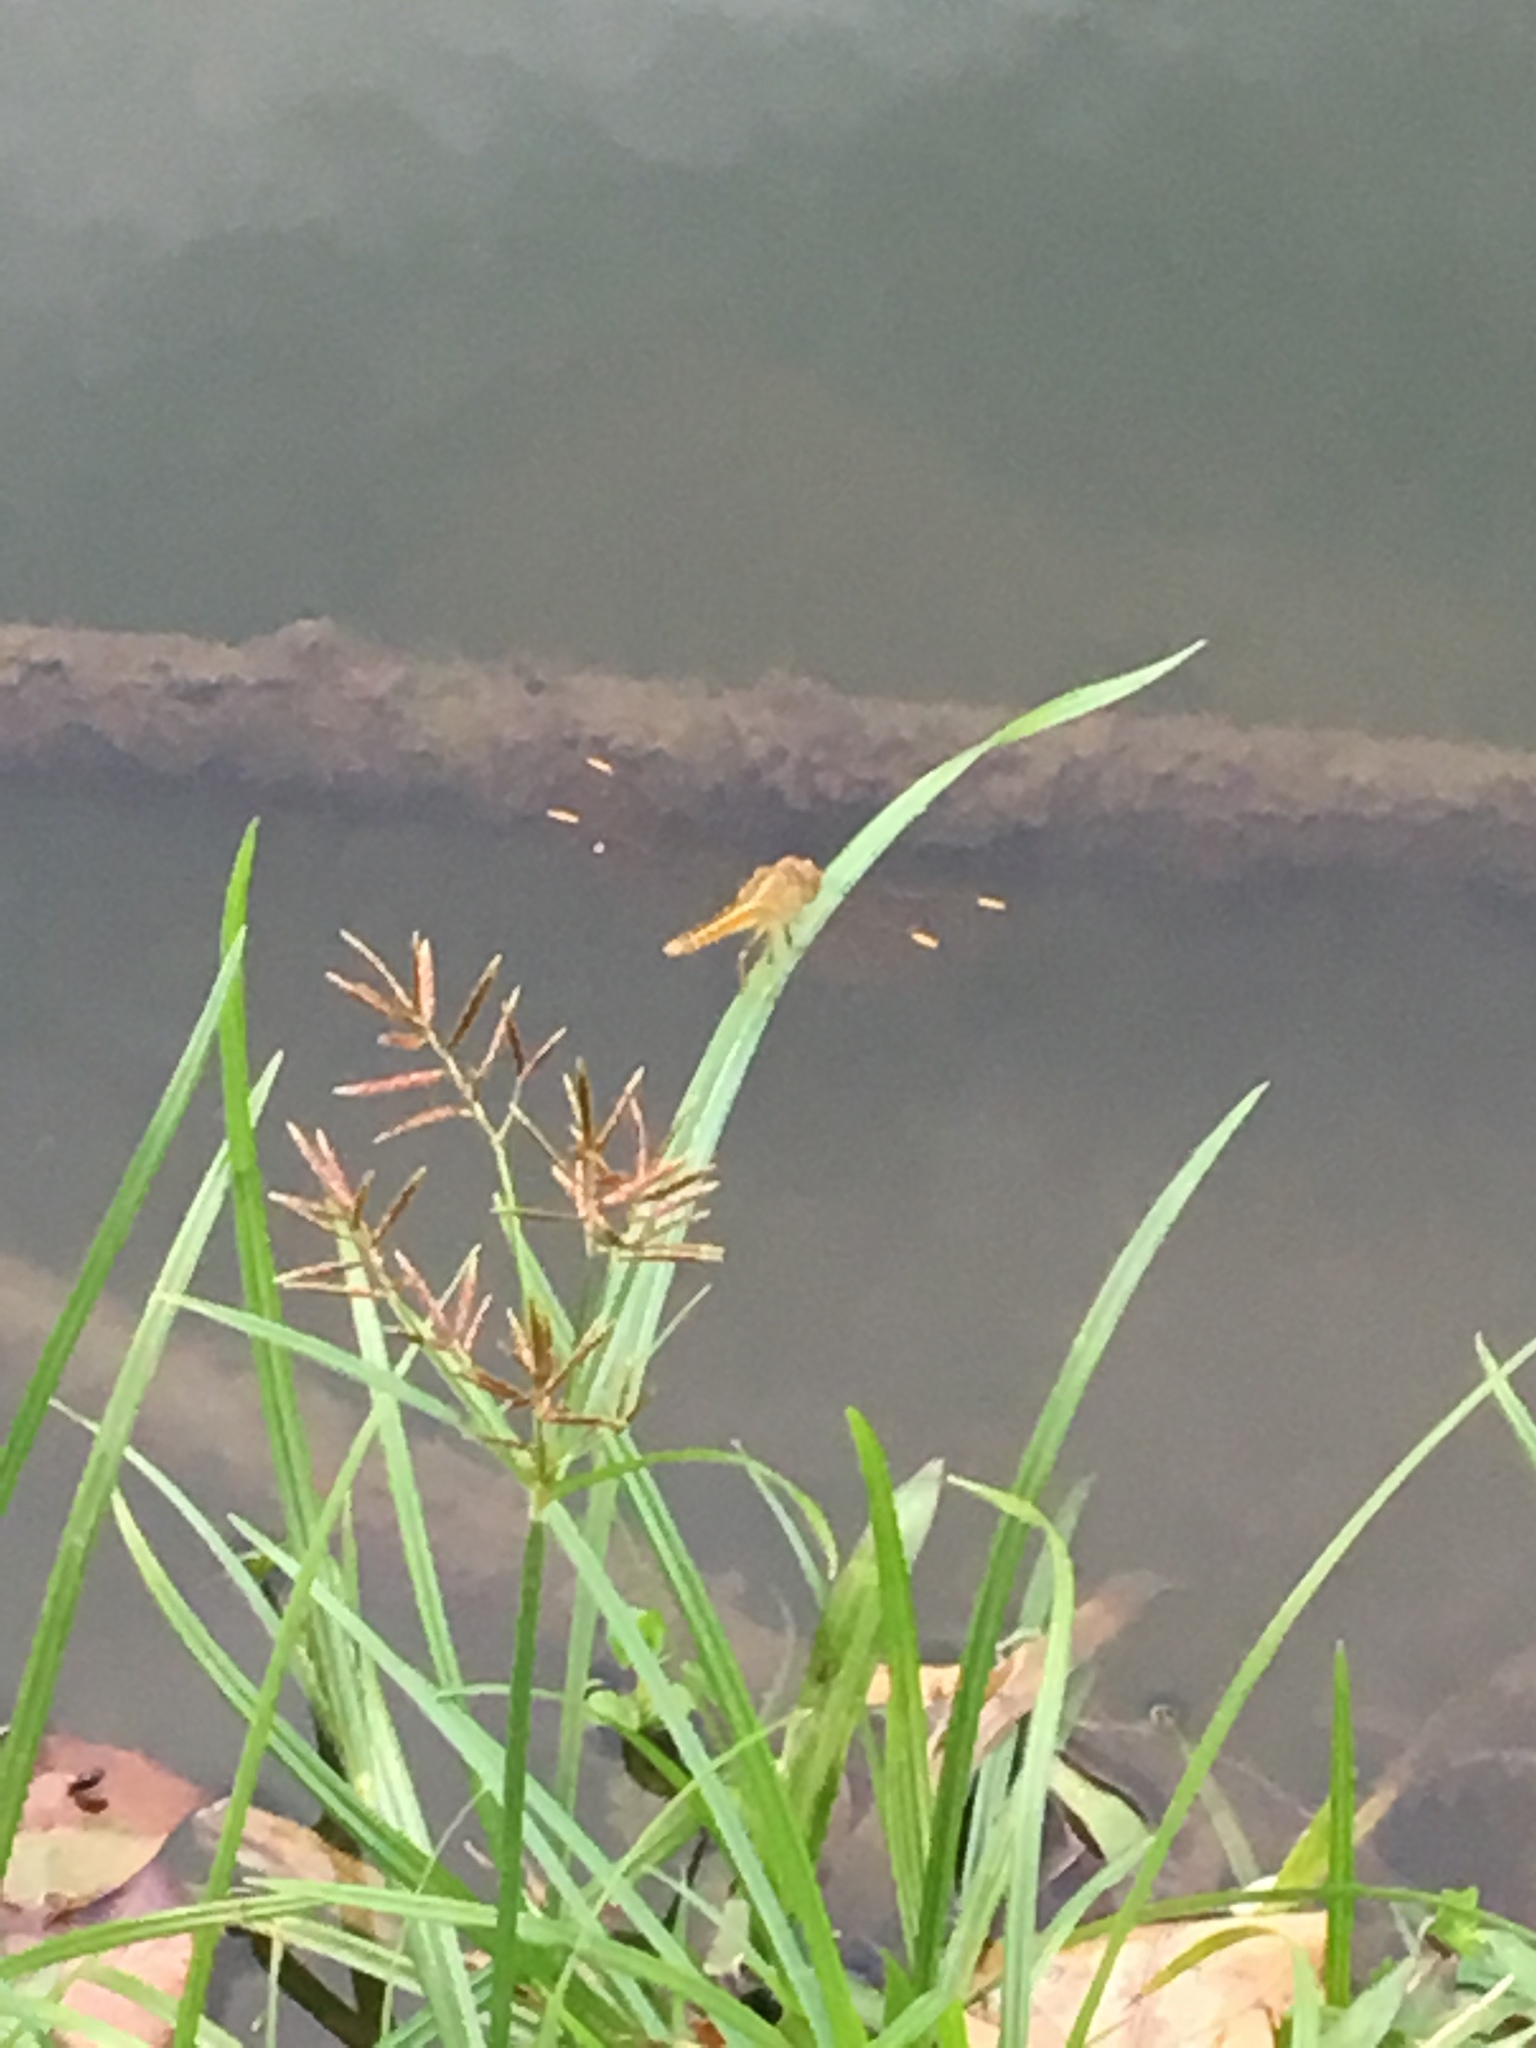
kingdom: Animalia
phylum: Arthropoda
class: Insecta
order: Odonata
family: Libellulidae
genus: Brachythemis
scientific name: Brachythemis contaminata
